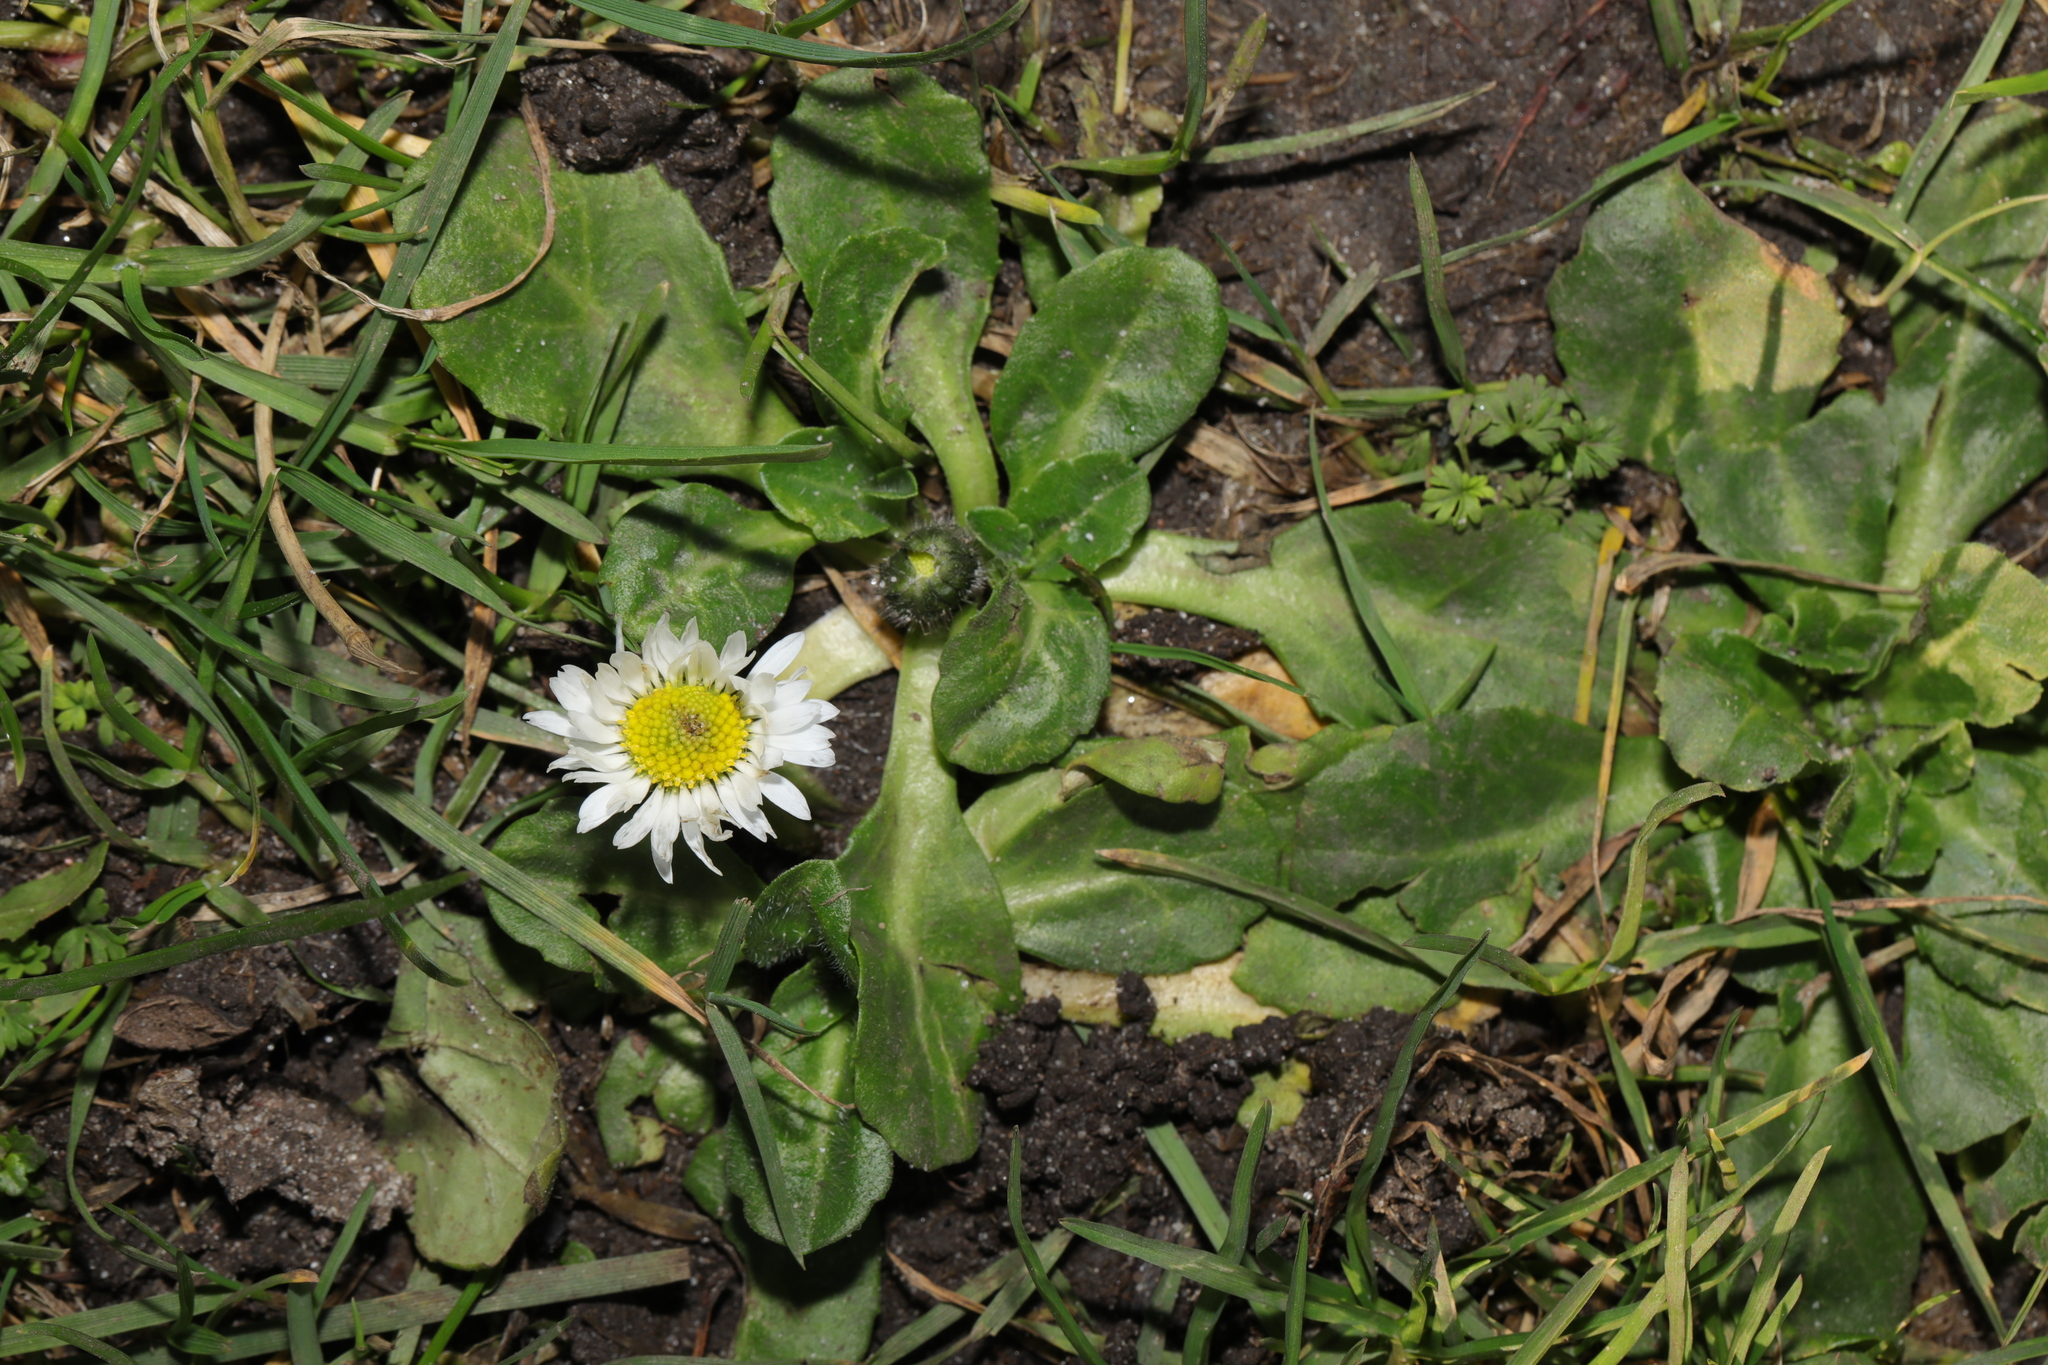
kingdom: Plantae
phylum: Tracheophyta
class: Magnoliopsida
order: Asterales
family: Asteraceae
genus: Bellis
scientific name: Bellis perennis
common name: Lawndaisy
